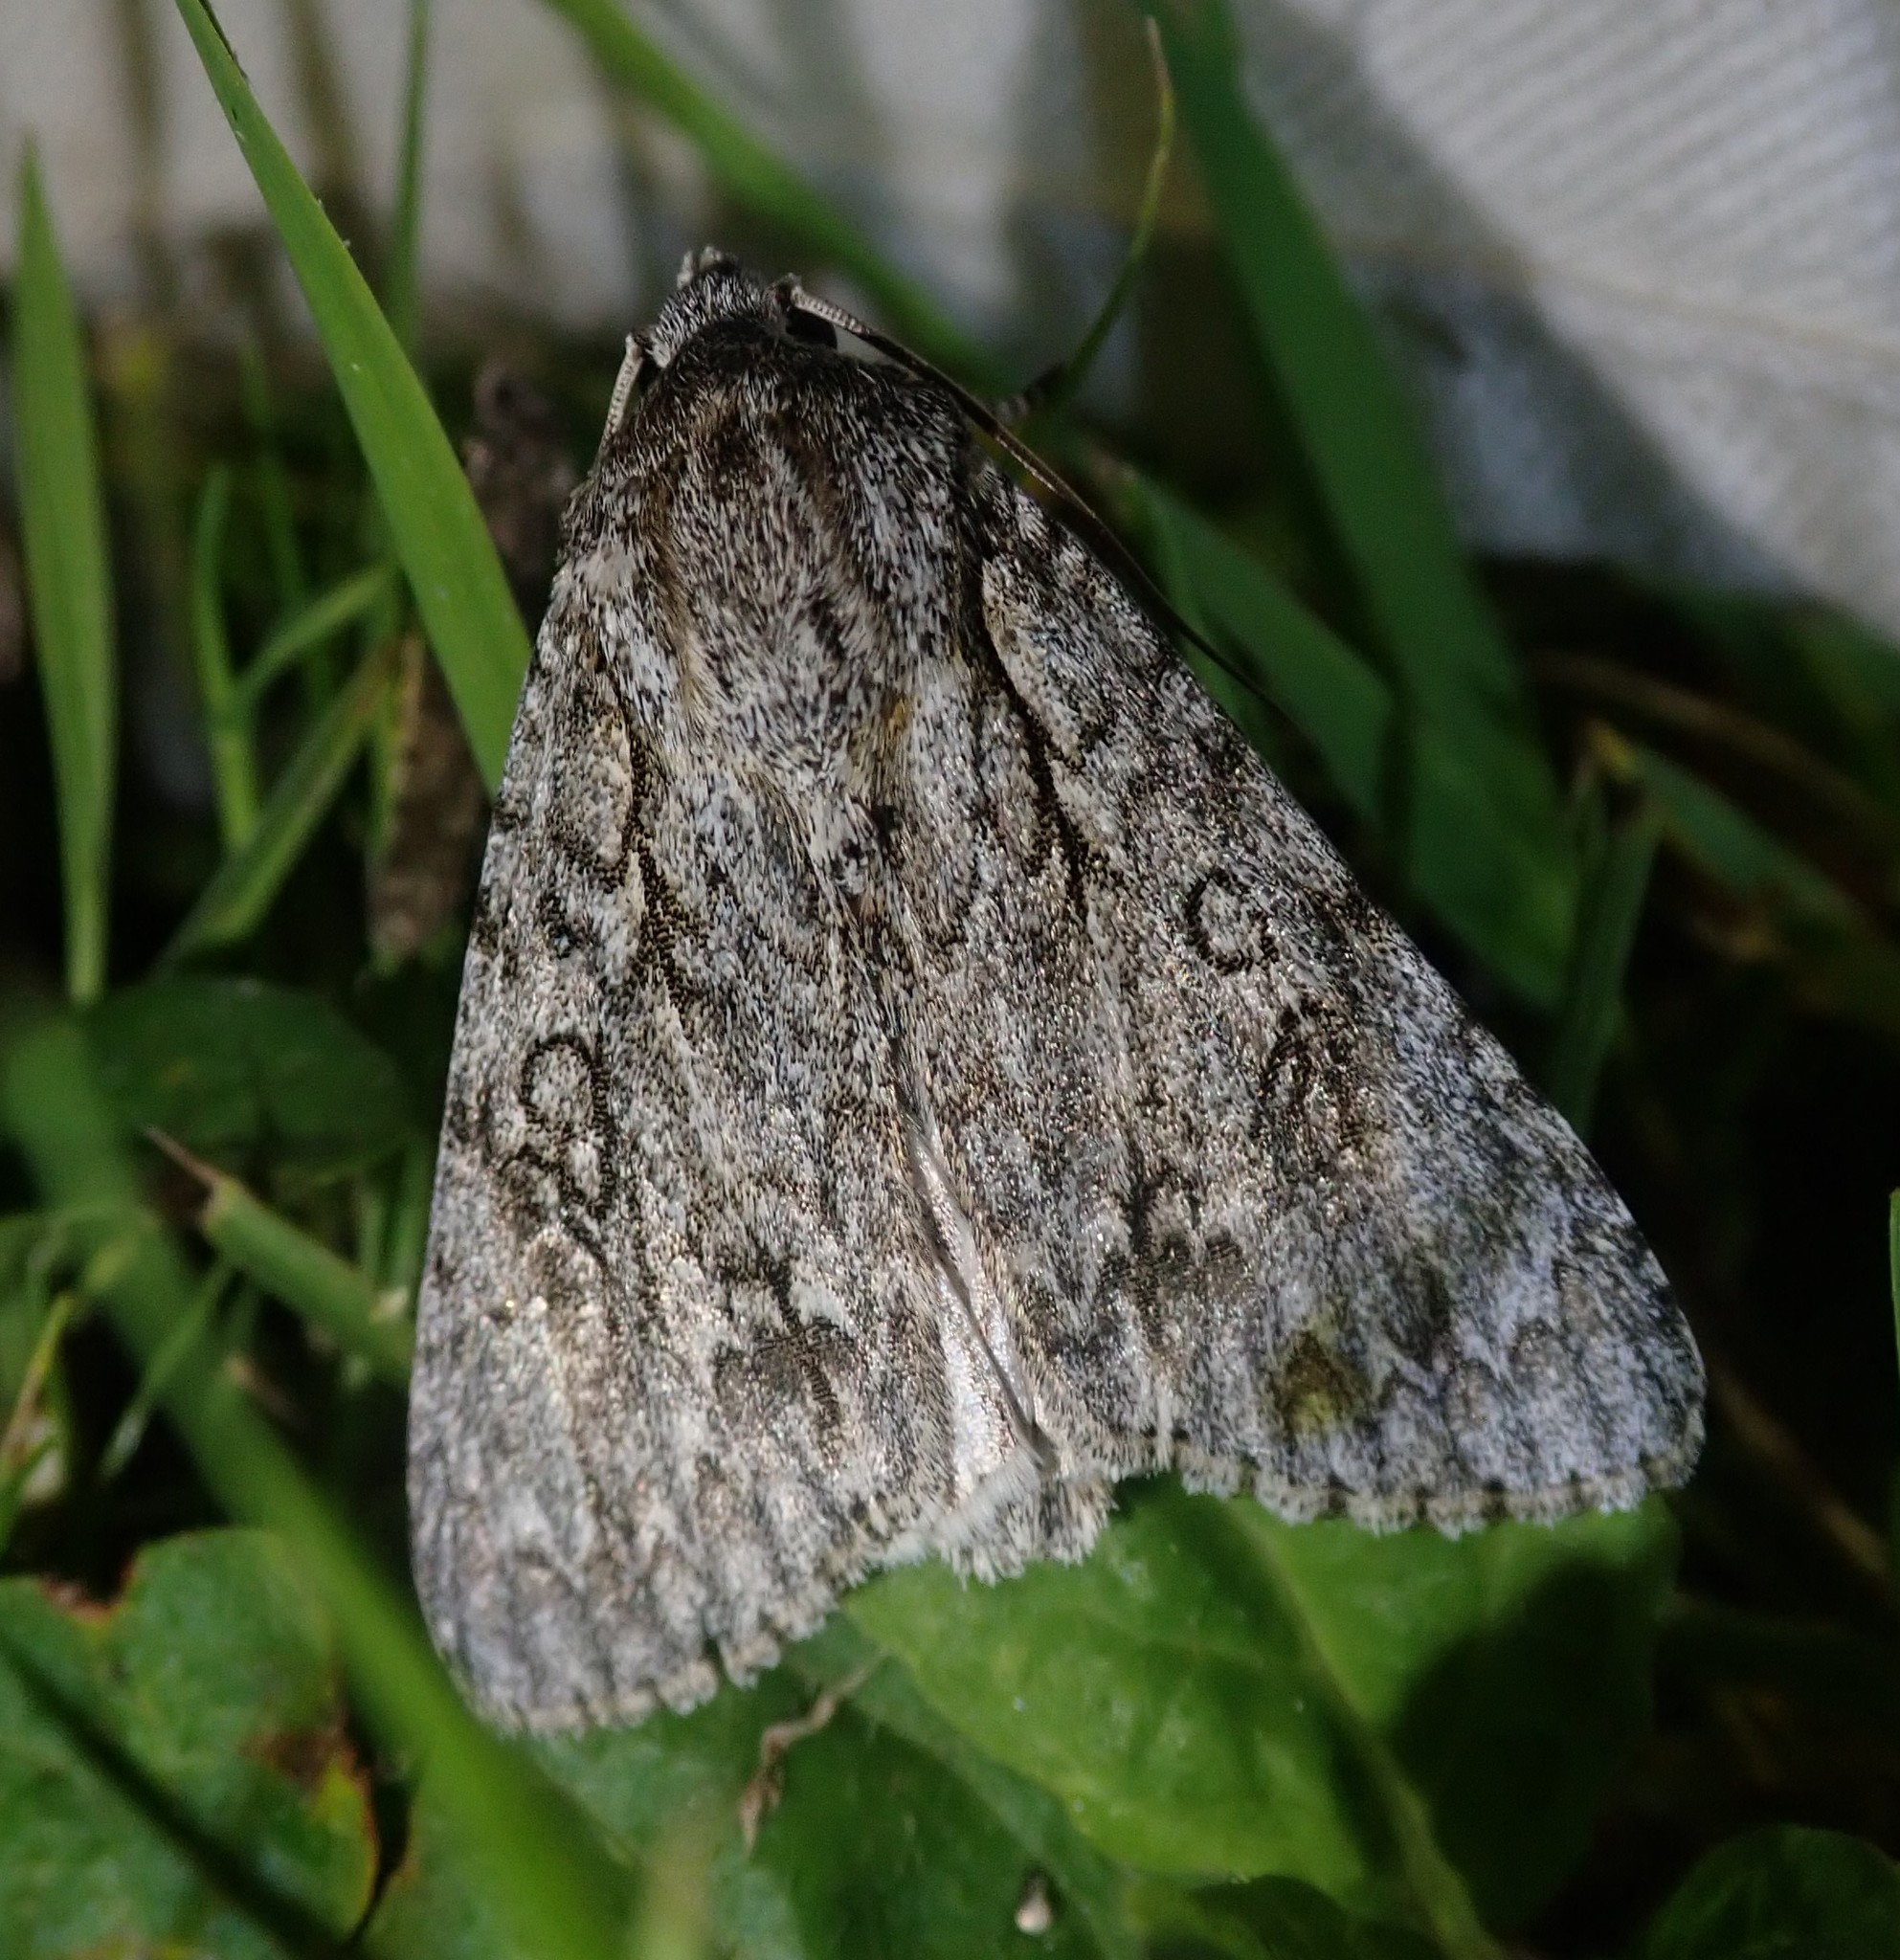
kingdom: Animalia
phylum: Arthropoda
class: Insecta
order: Lepidoptera
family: Noctuidae
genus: Acronicta
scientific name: Acronicta aceris
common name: Sycamore
